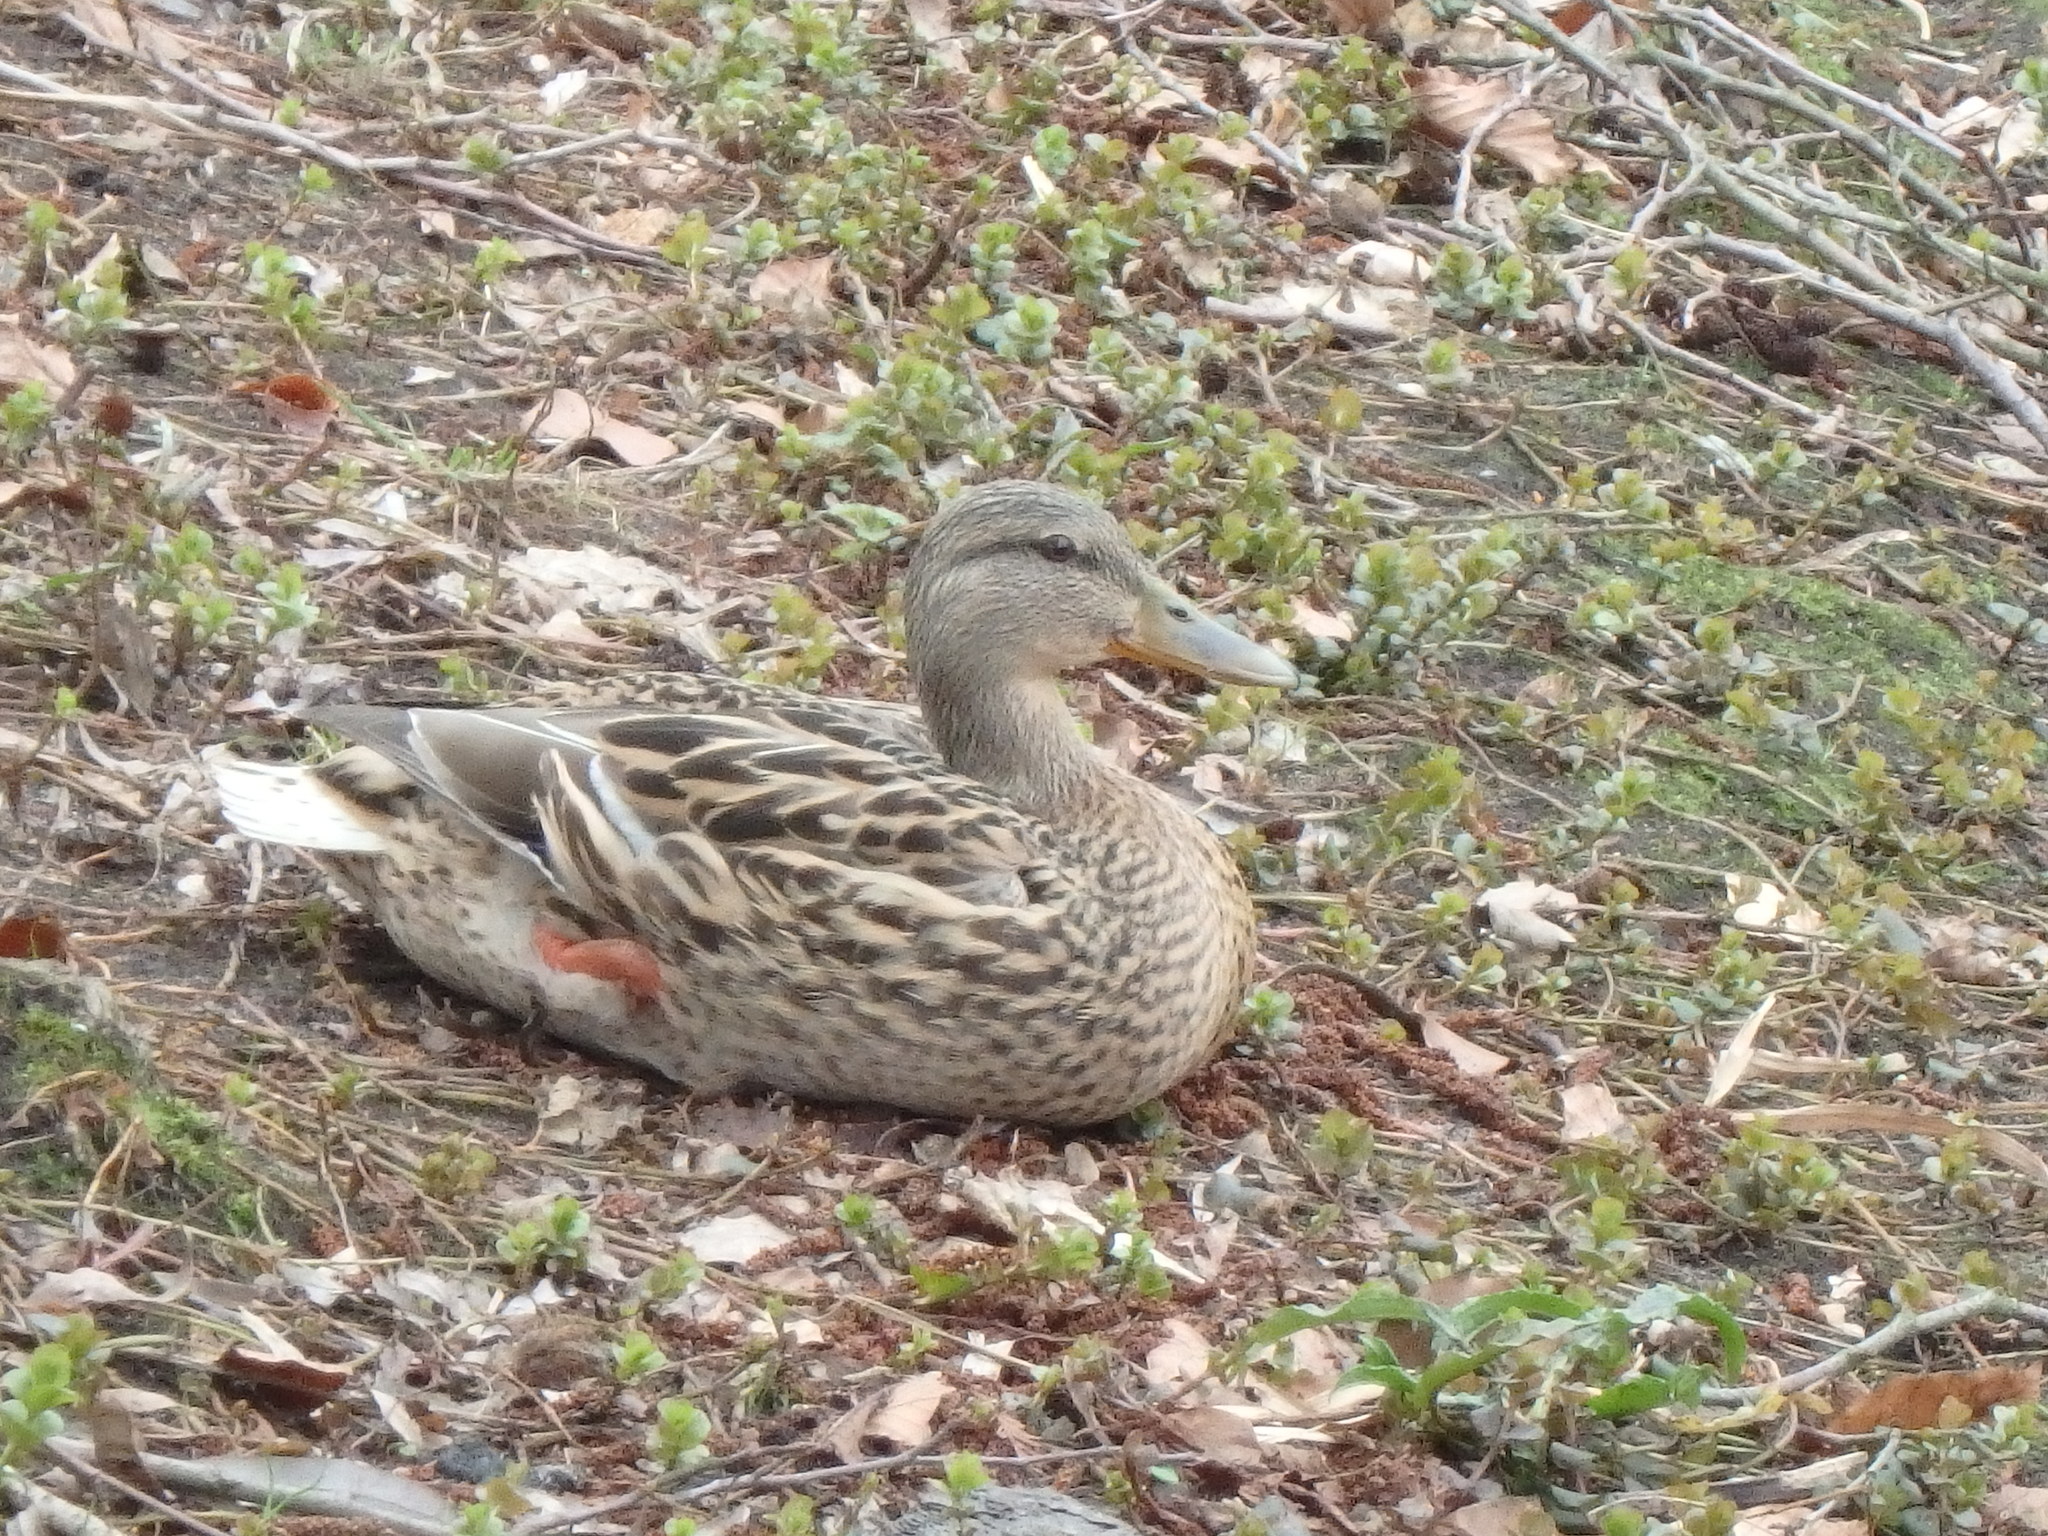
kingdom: Animalia
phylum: Chordata
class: Aves
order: Anseriformes
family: Anatidae
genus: Anas
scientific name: Anas platyrhynchos
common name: Mallard
